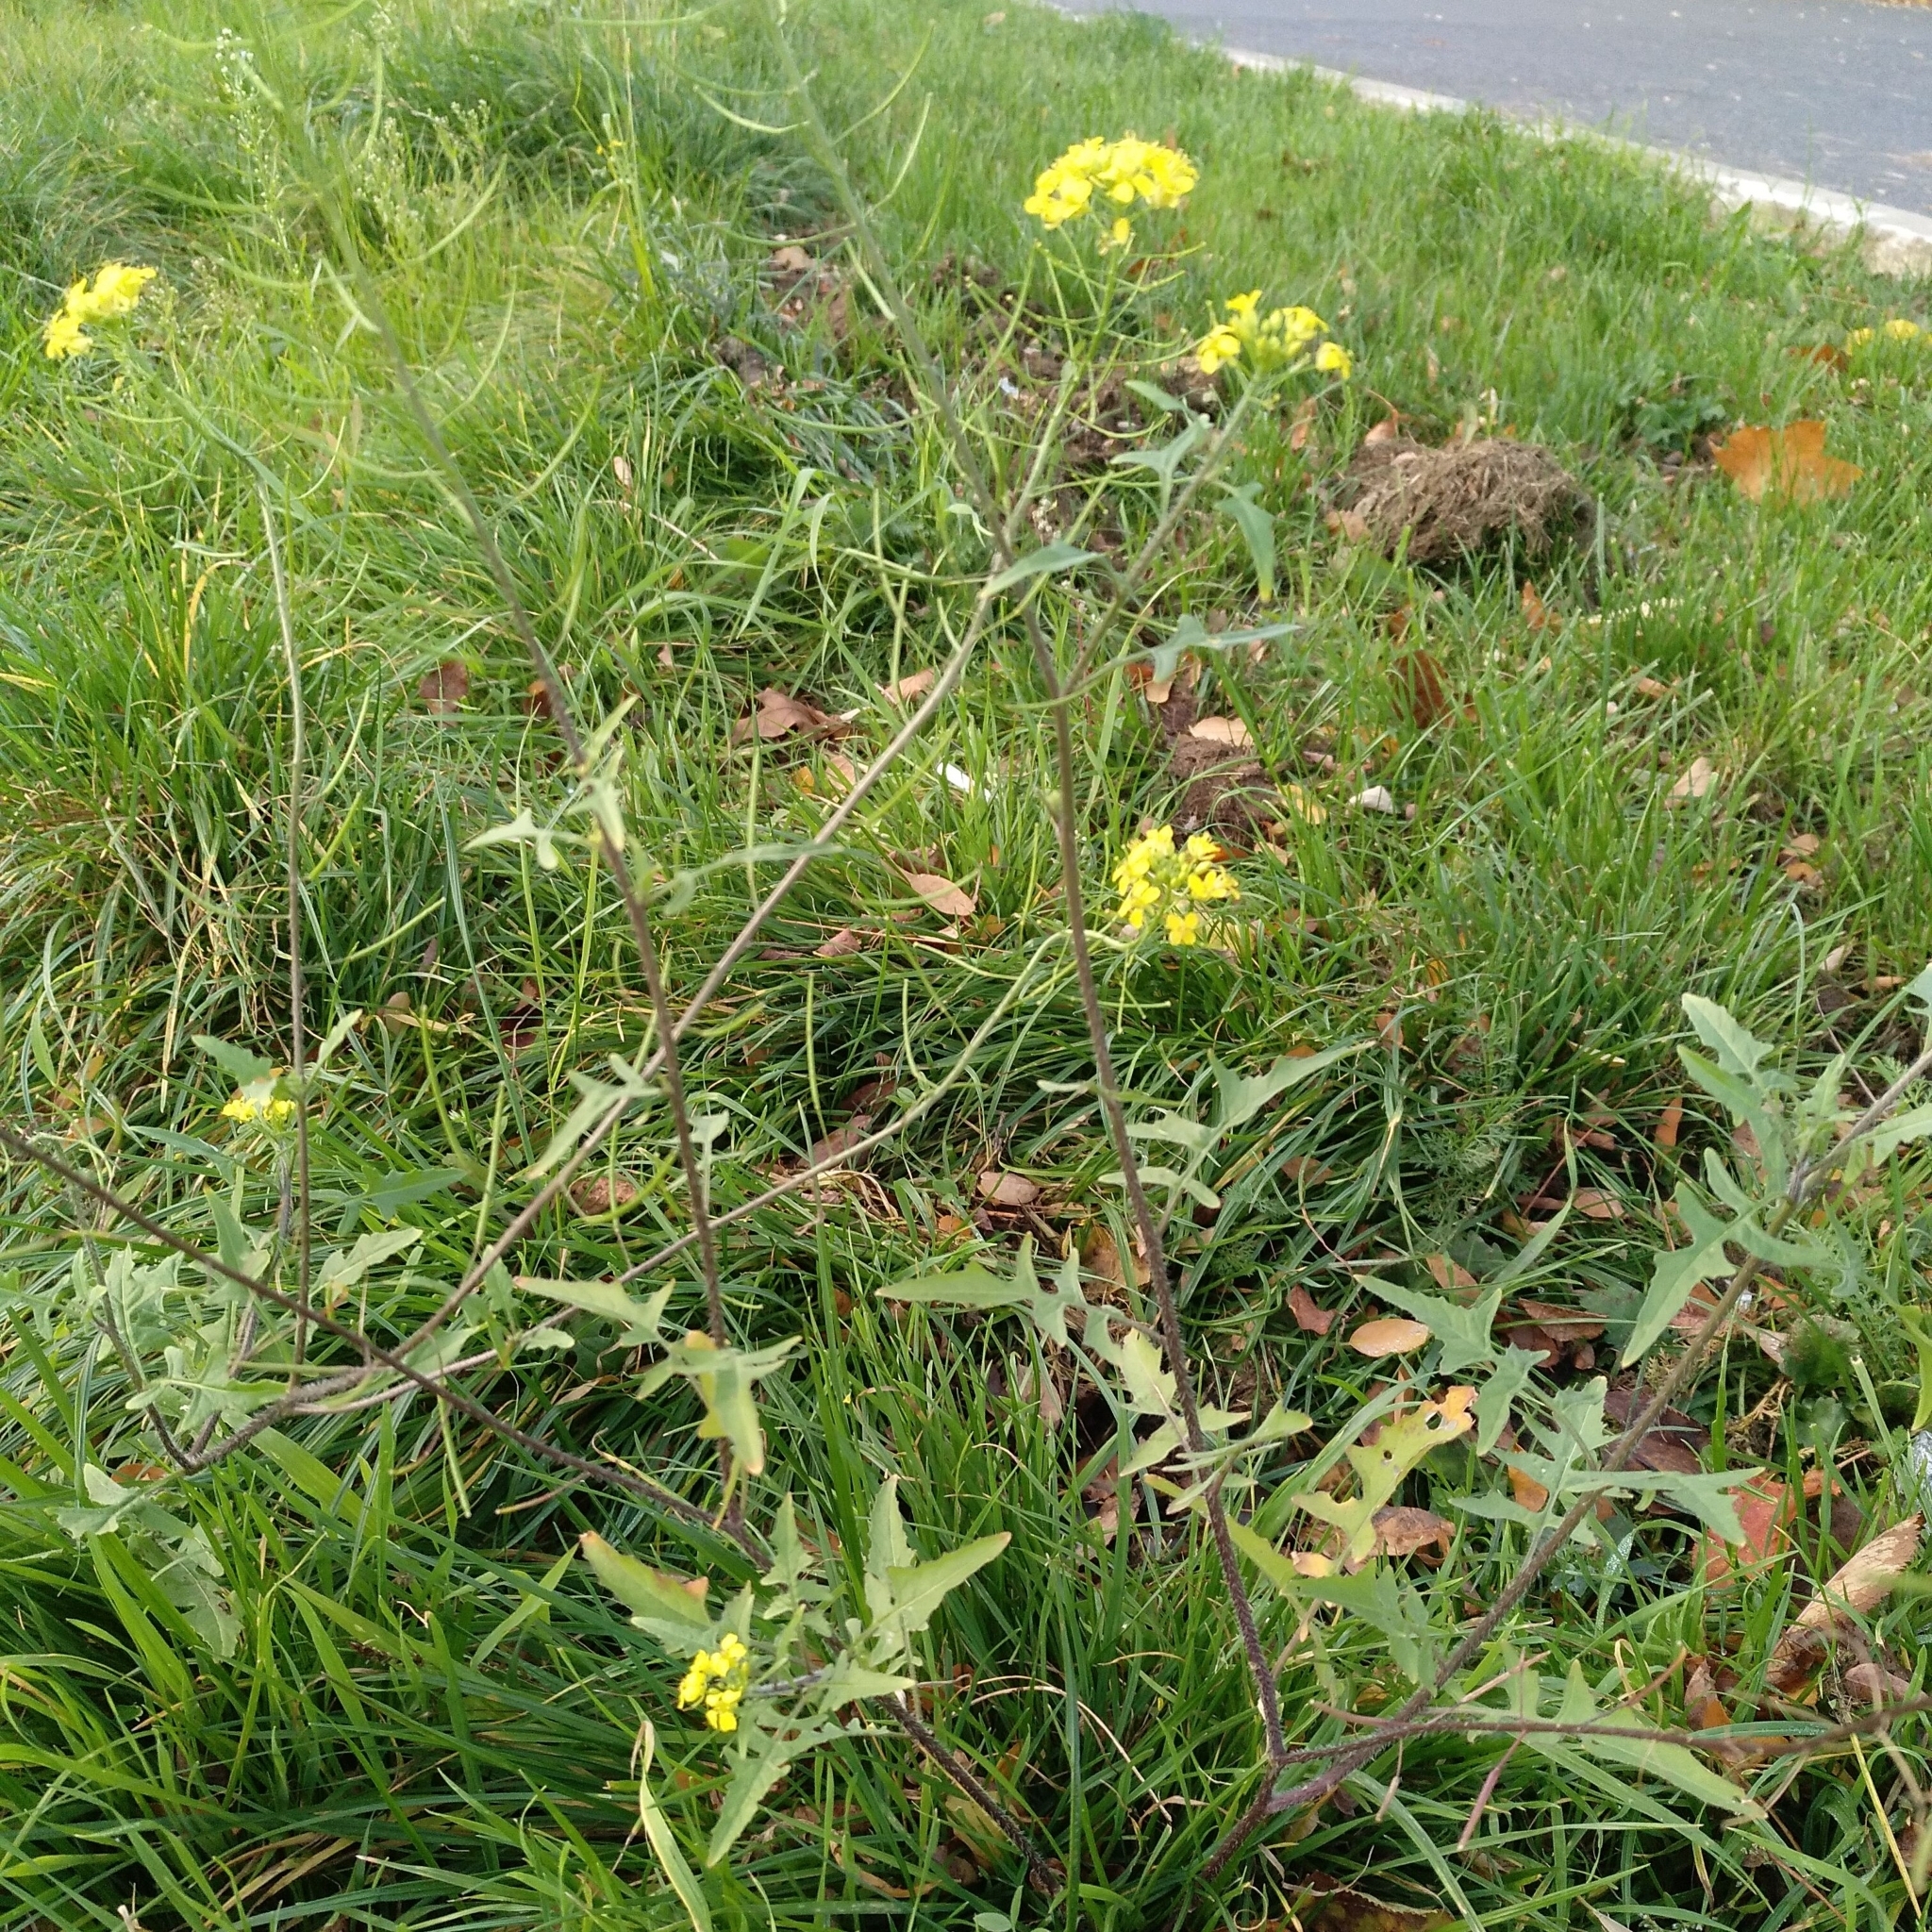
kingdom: Plantae
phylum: Tracheophyta
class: Magnoliopsida
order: Brassicales
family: Brassicaceae
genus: Sisymbrium
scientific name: Sisymbrium loeselii
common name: False london-rocket
